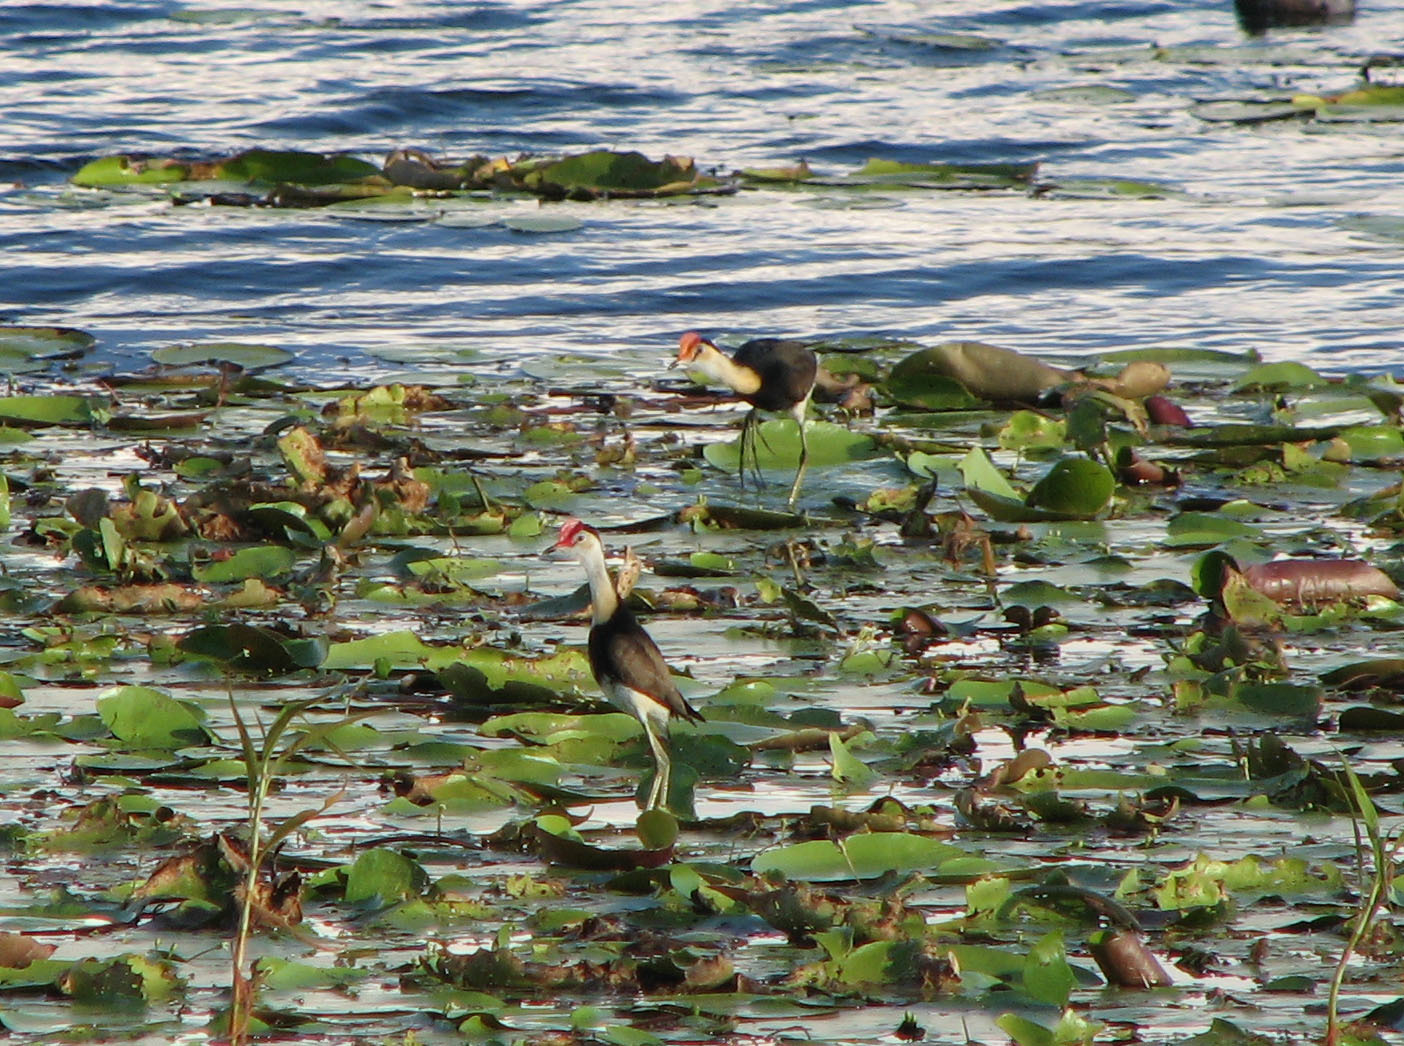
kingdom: Animalia
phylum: Chordata
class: Aves
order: Charadriiformes
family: Jacanidae
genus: Irediparra
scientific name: Irediparra gallinacea
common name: Comb-crested jacana
